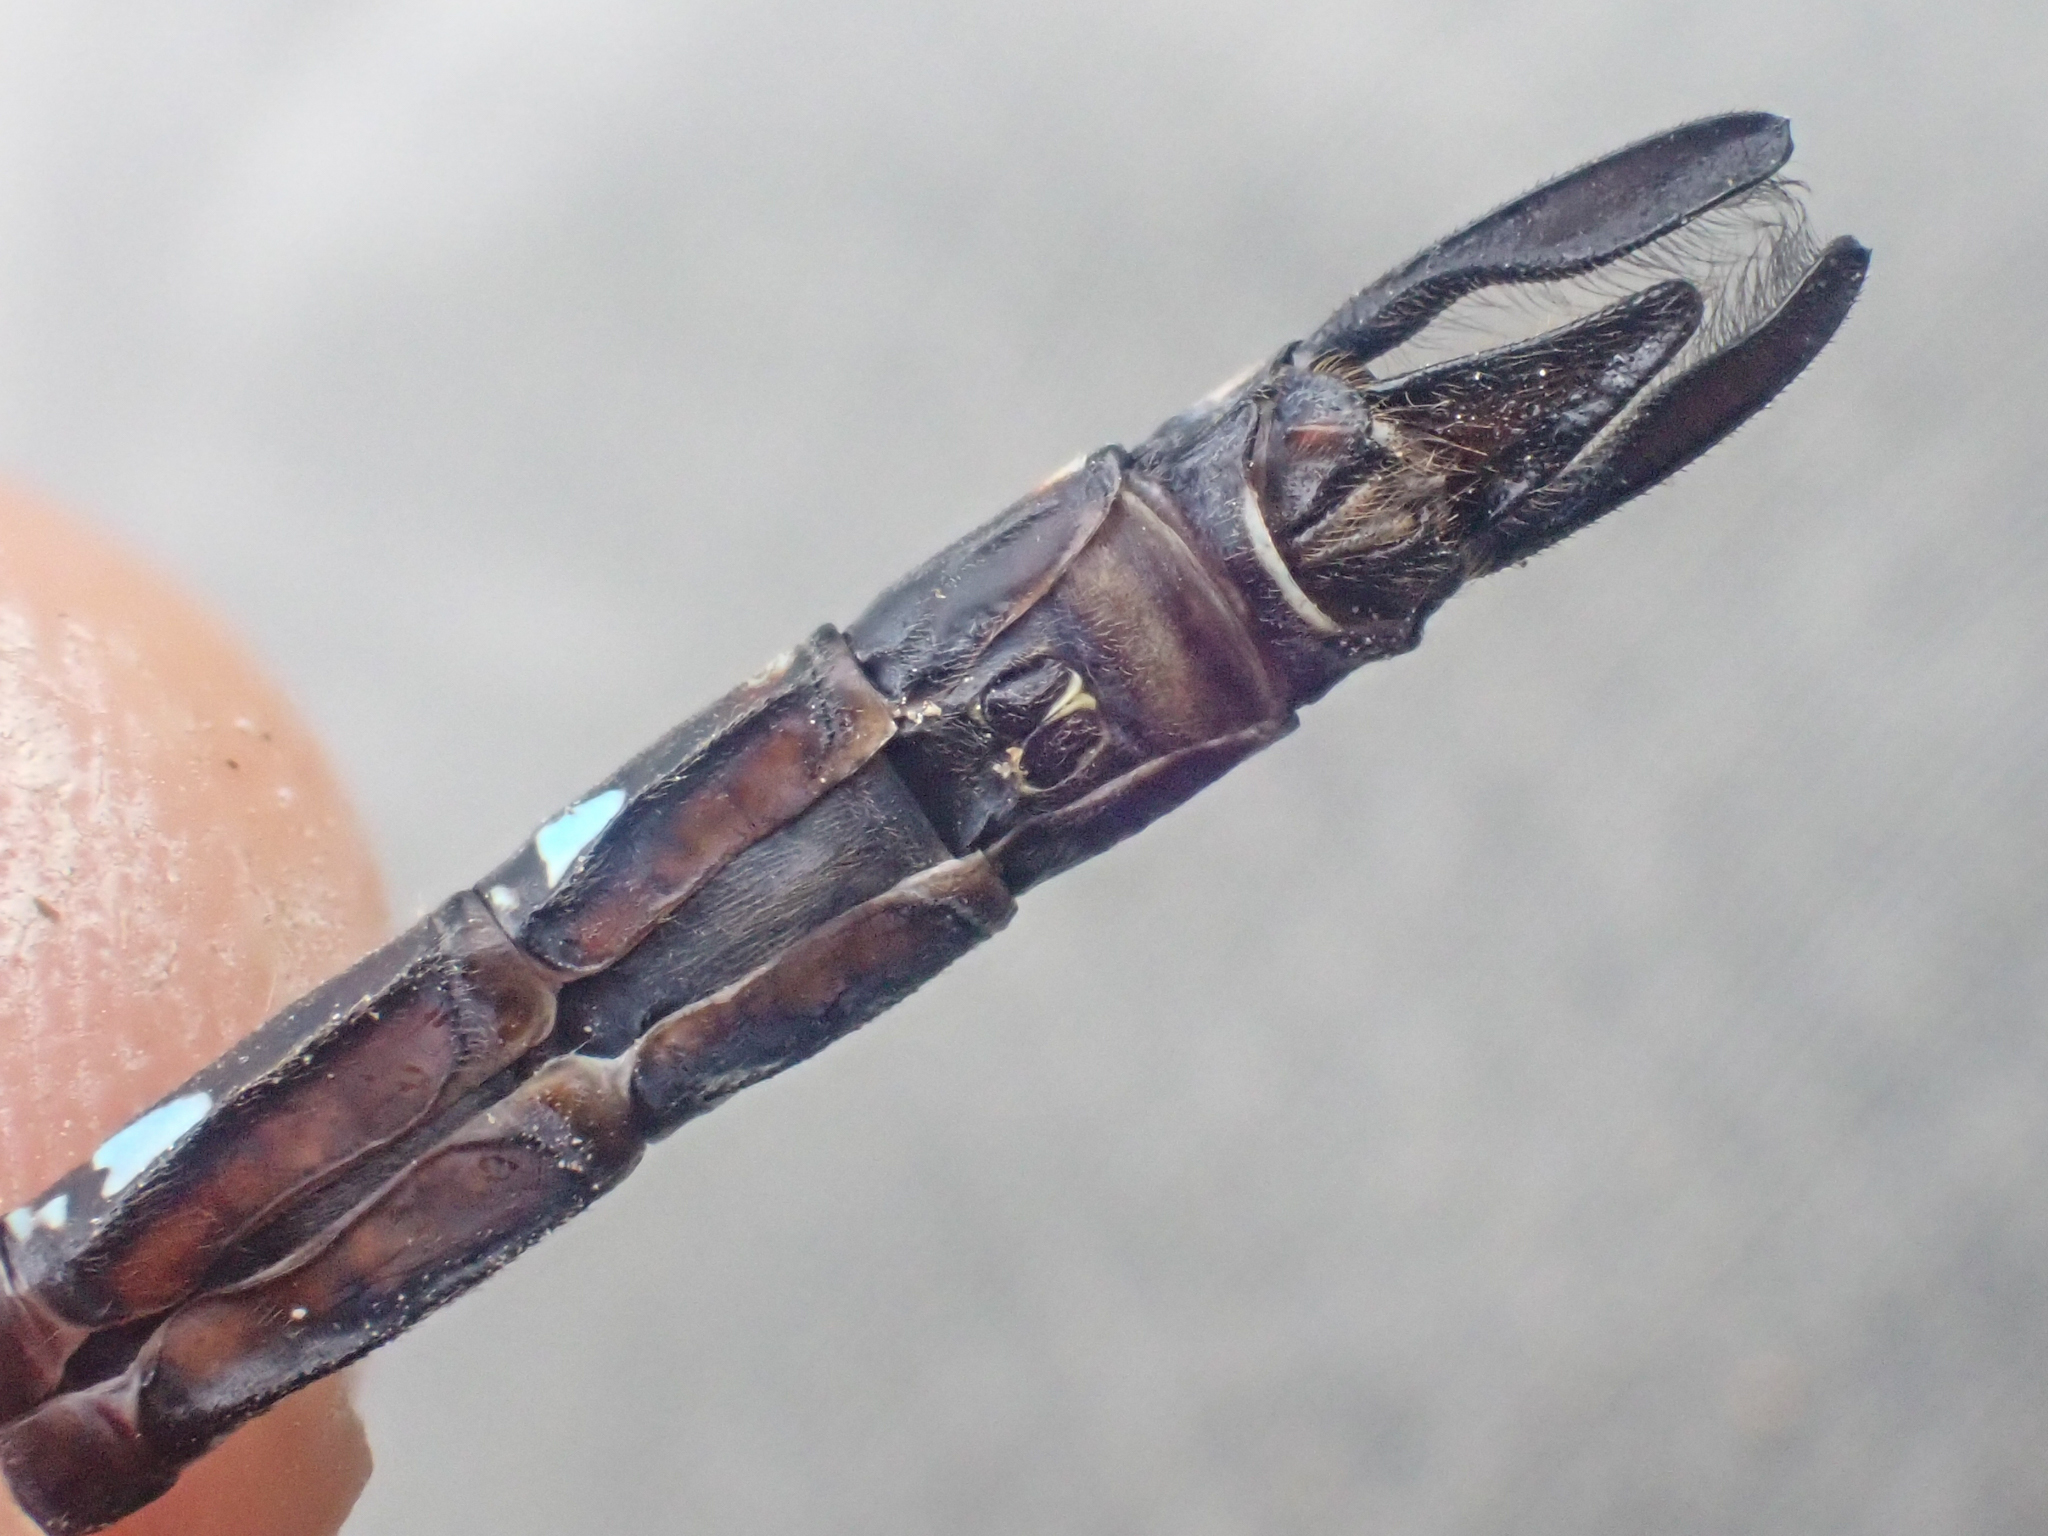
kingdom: Animalia
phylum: Arthropoda
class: Insecta
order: Odonata
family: Aeshnidae
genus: Aeshna
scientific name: Aeshna interrupta
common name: Variable darner
